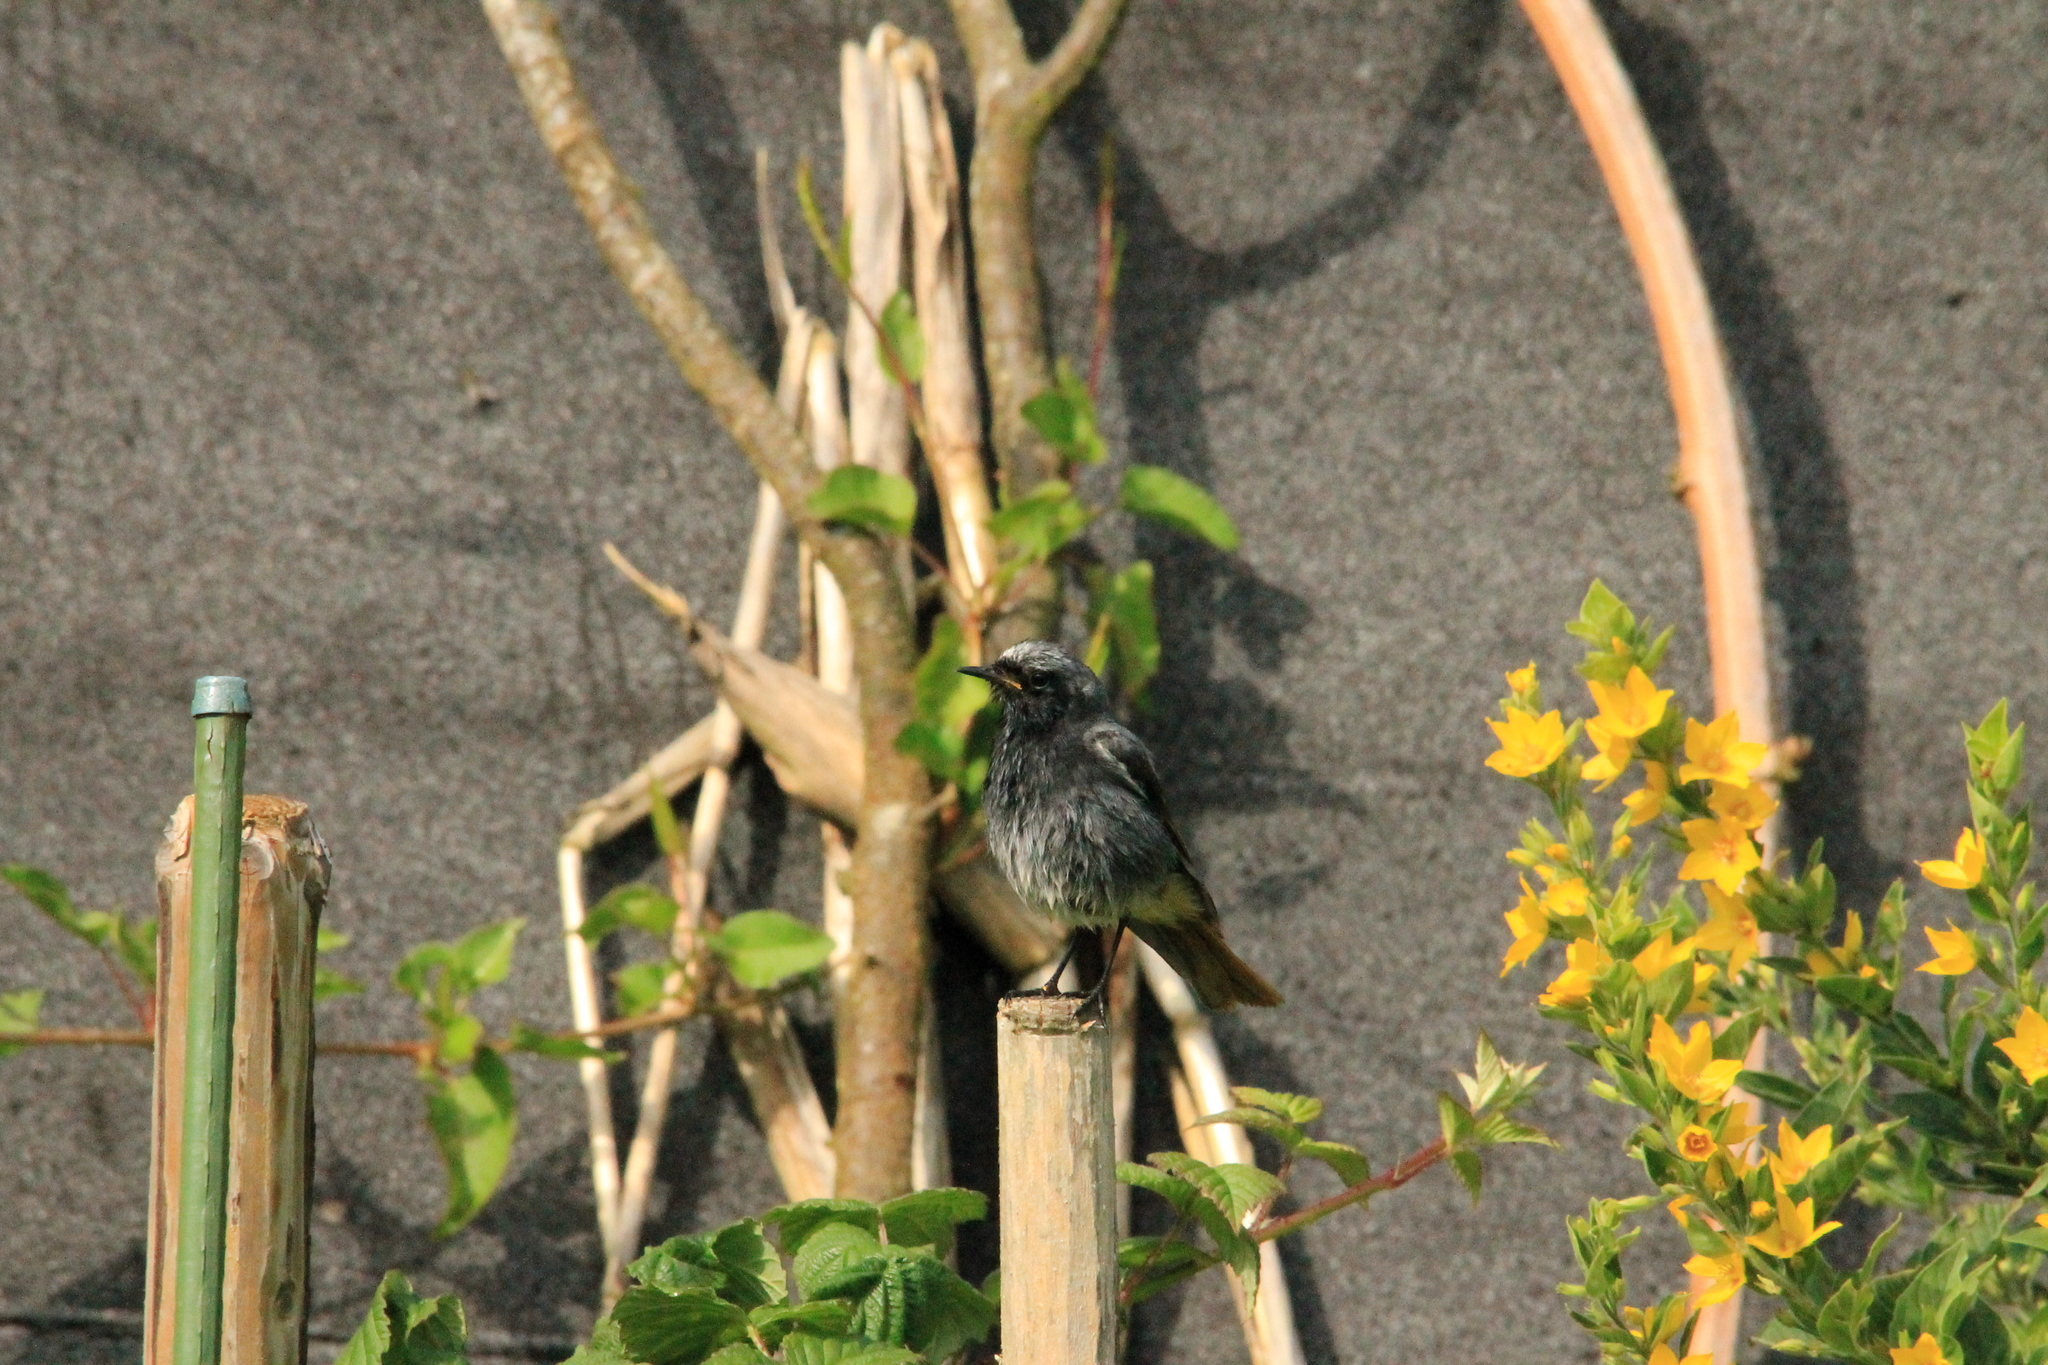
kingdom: Animalia
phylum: Chordata
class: Aves
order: Passeriformes
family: Muscicapidae
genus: Phoenicurus
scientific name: Phoenicurus ochruros
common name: Black redstart
